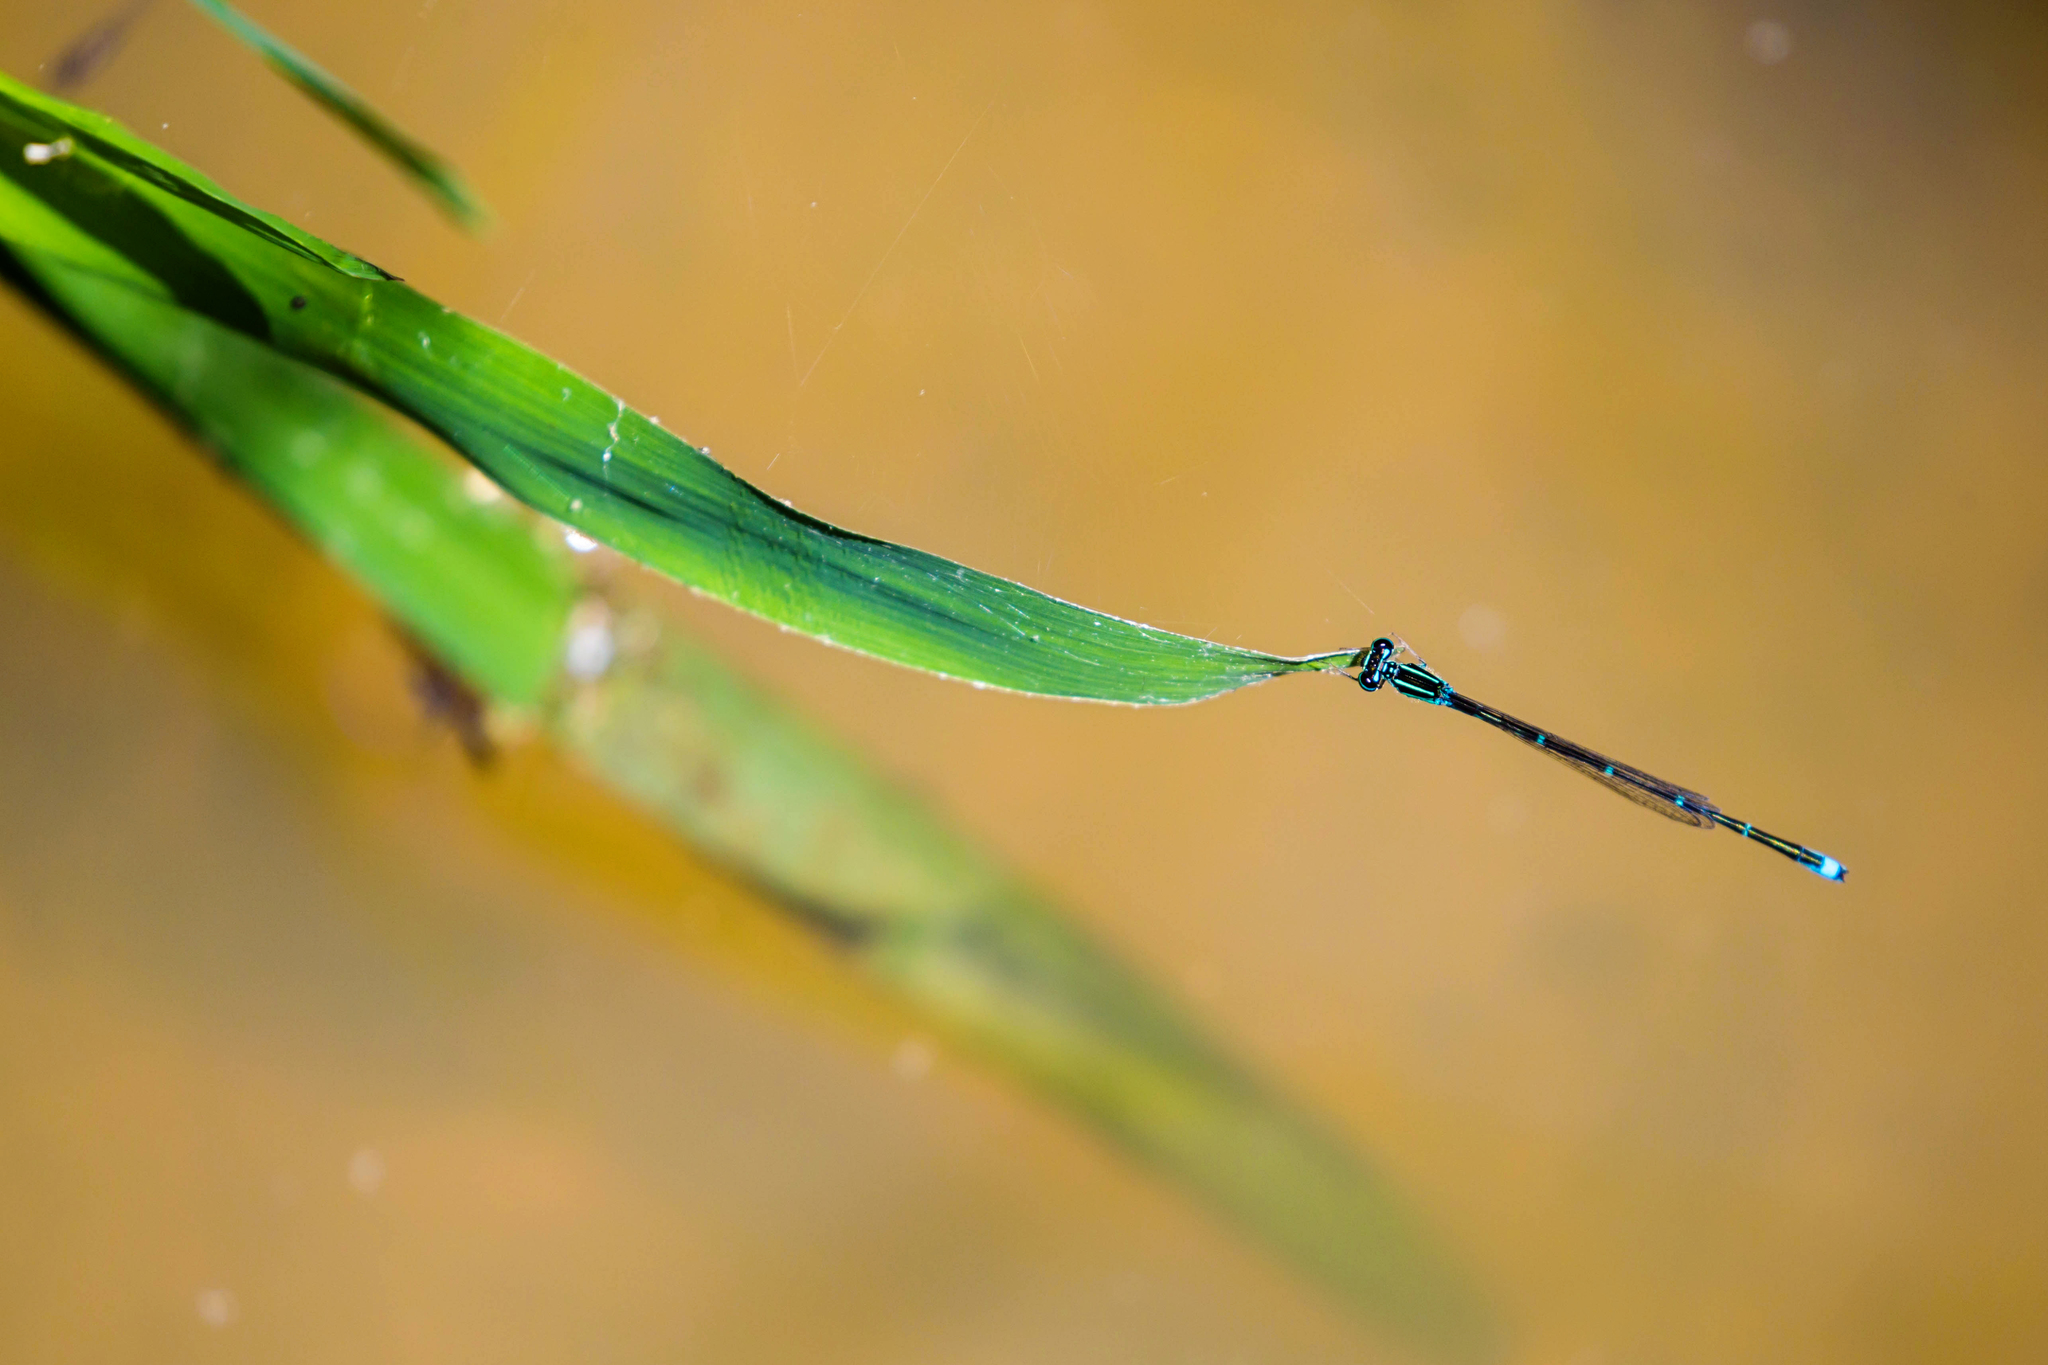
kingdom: Animalia
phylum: Arthropoda
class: Insecta
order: Odonata
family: Coenagrionidae
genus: Enallagma
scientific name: Enallagma exsulans
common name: Stream bluet
